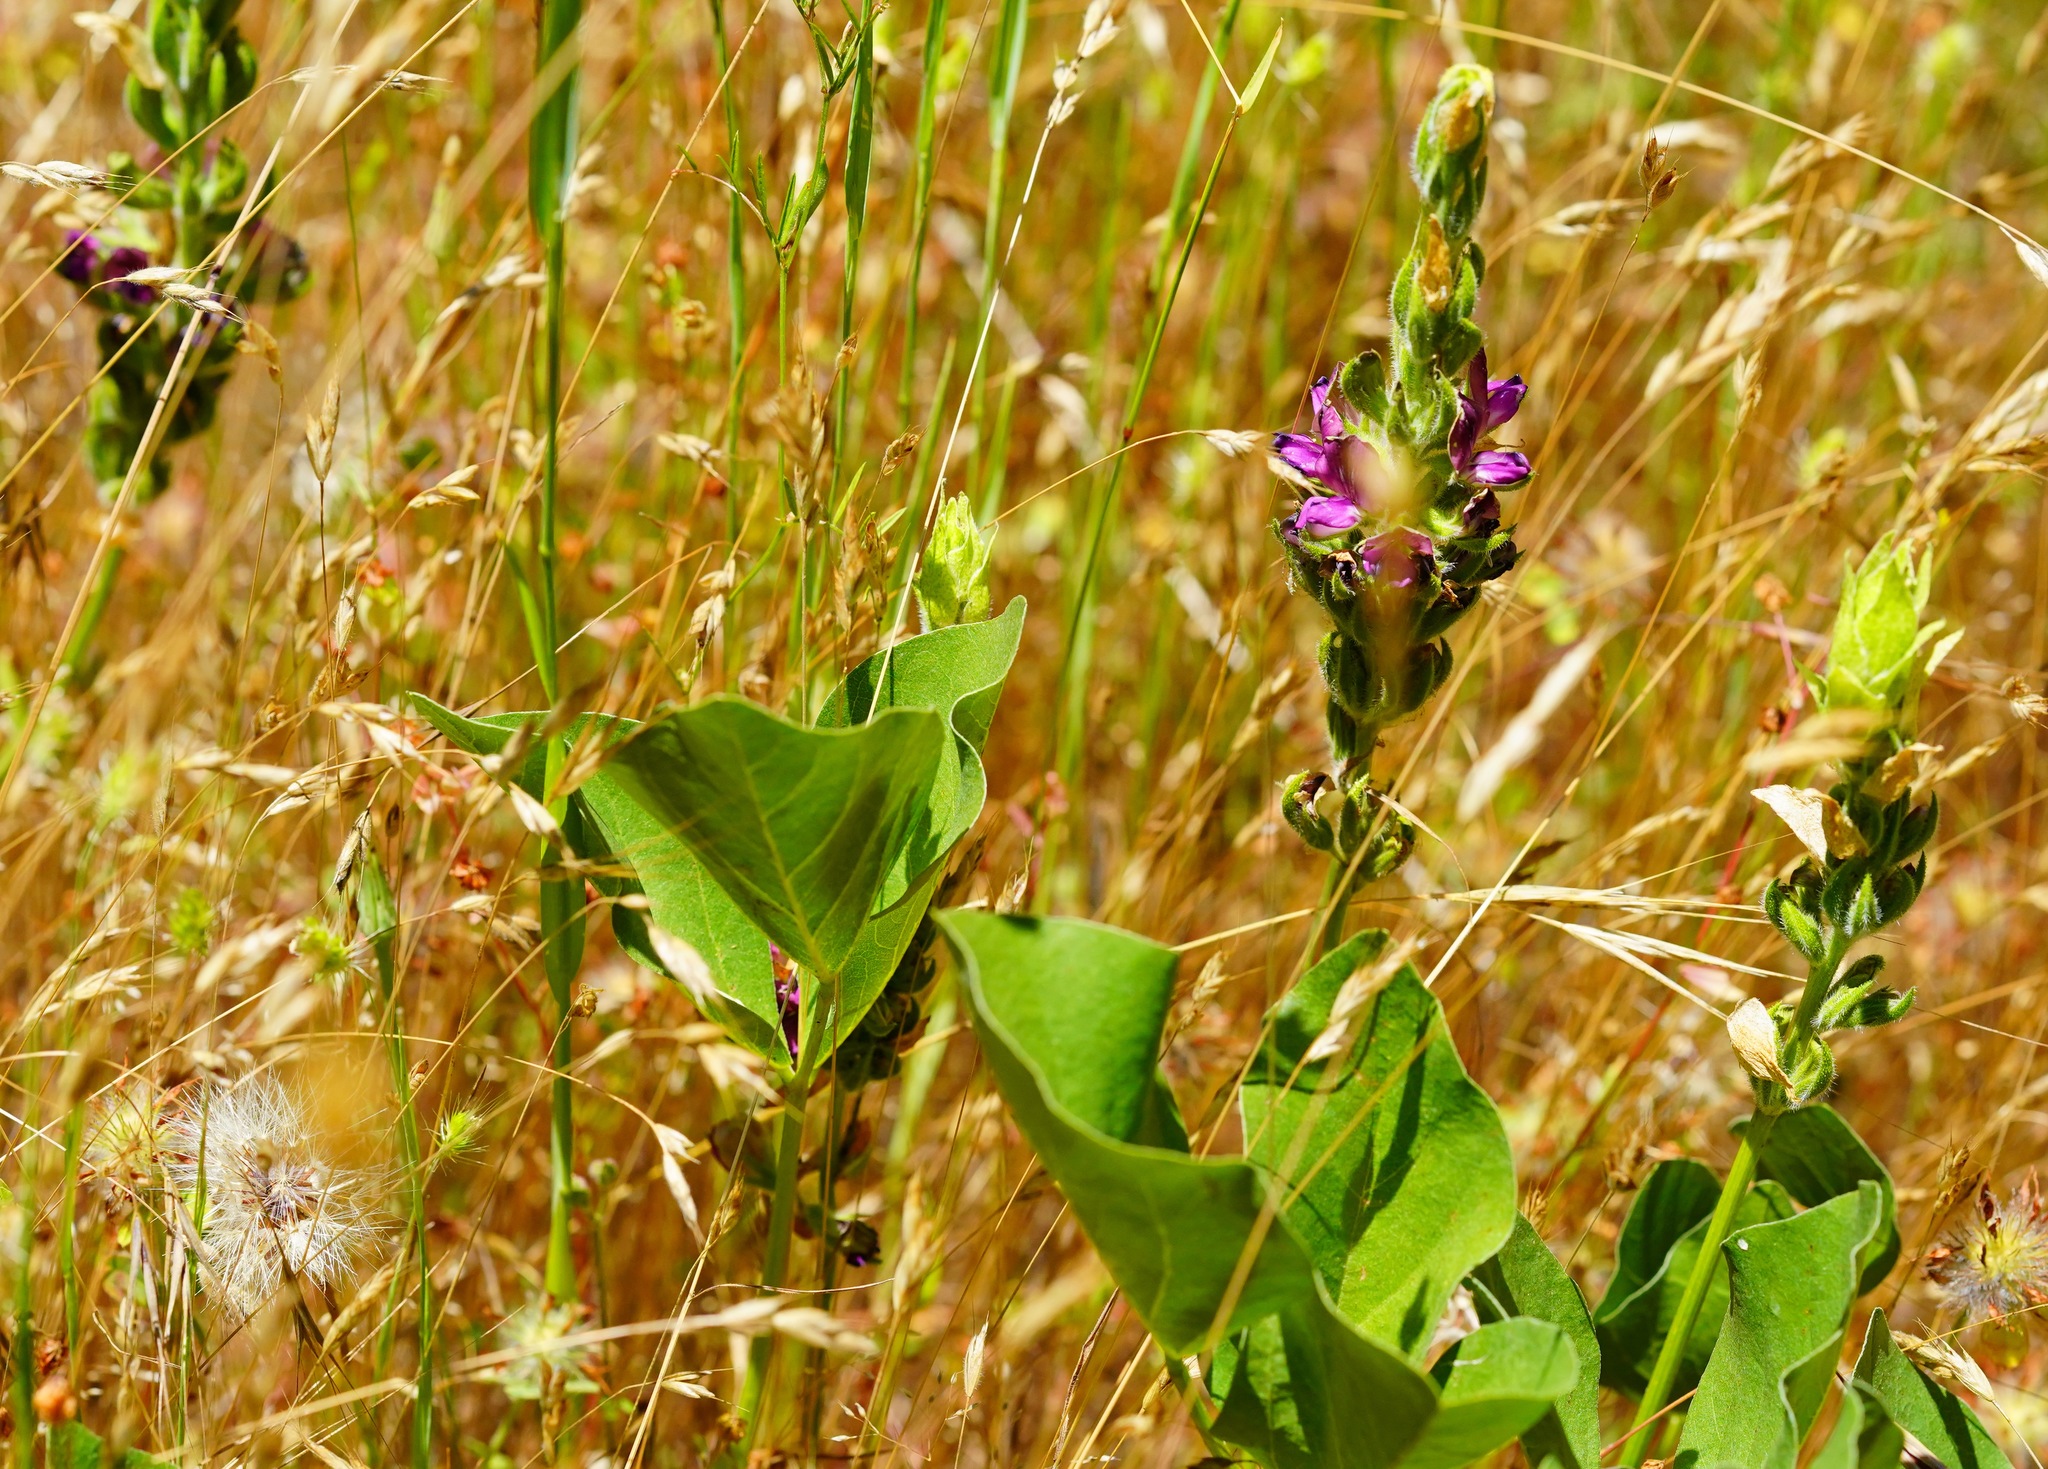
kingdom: Plantae
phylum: Tracheophyta
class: Magnoliopsida
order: Fabales
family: Fabaceae
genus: Hoita
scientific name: Hoita orbicularis
